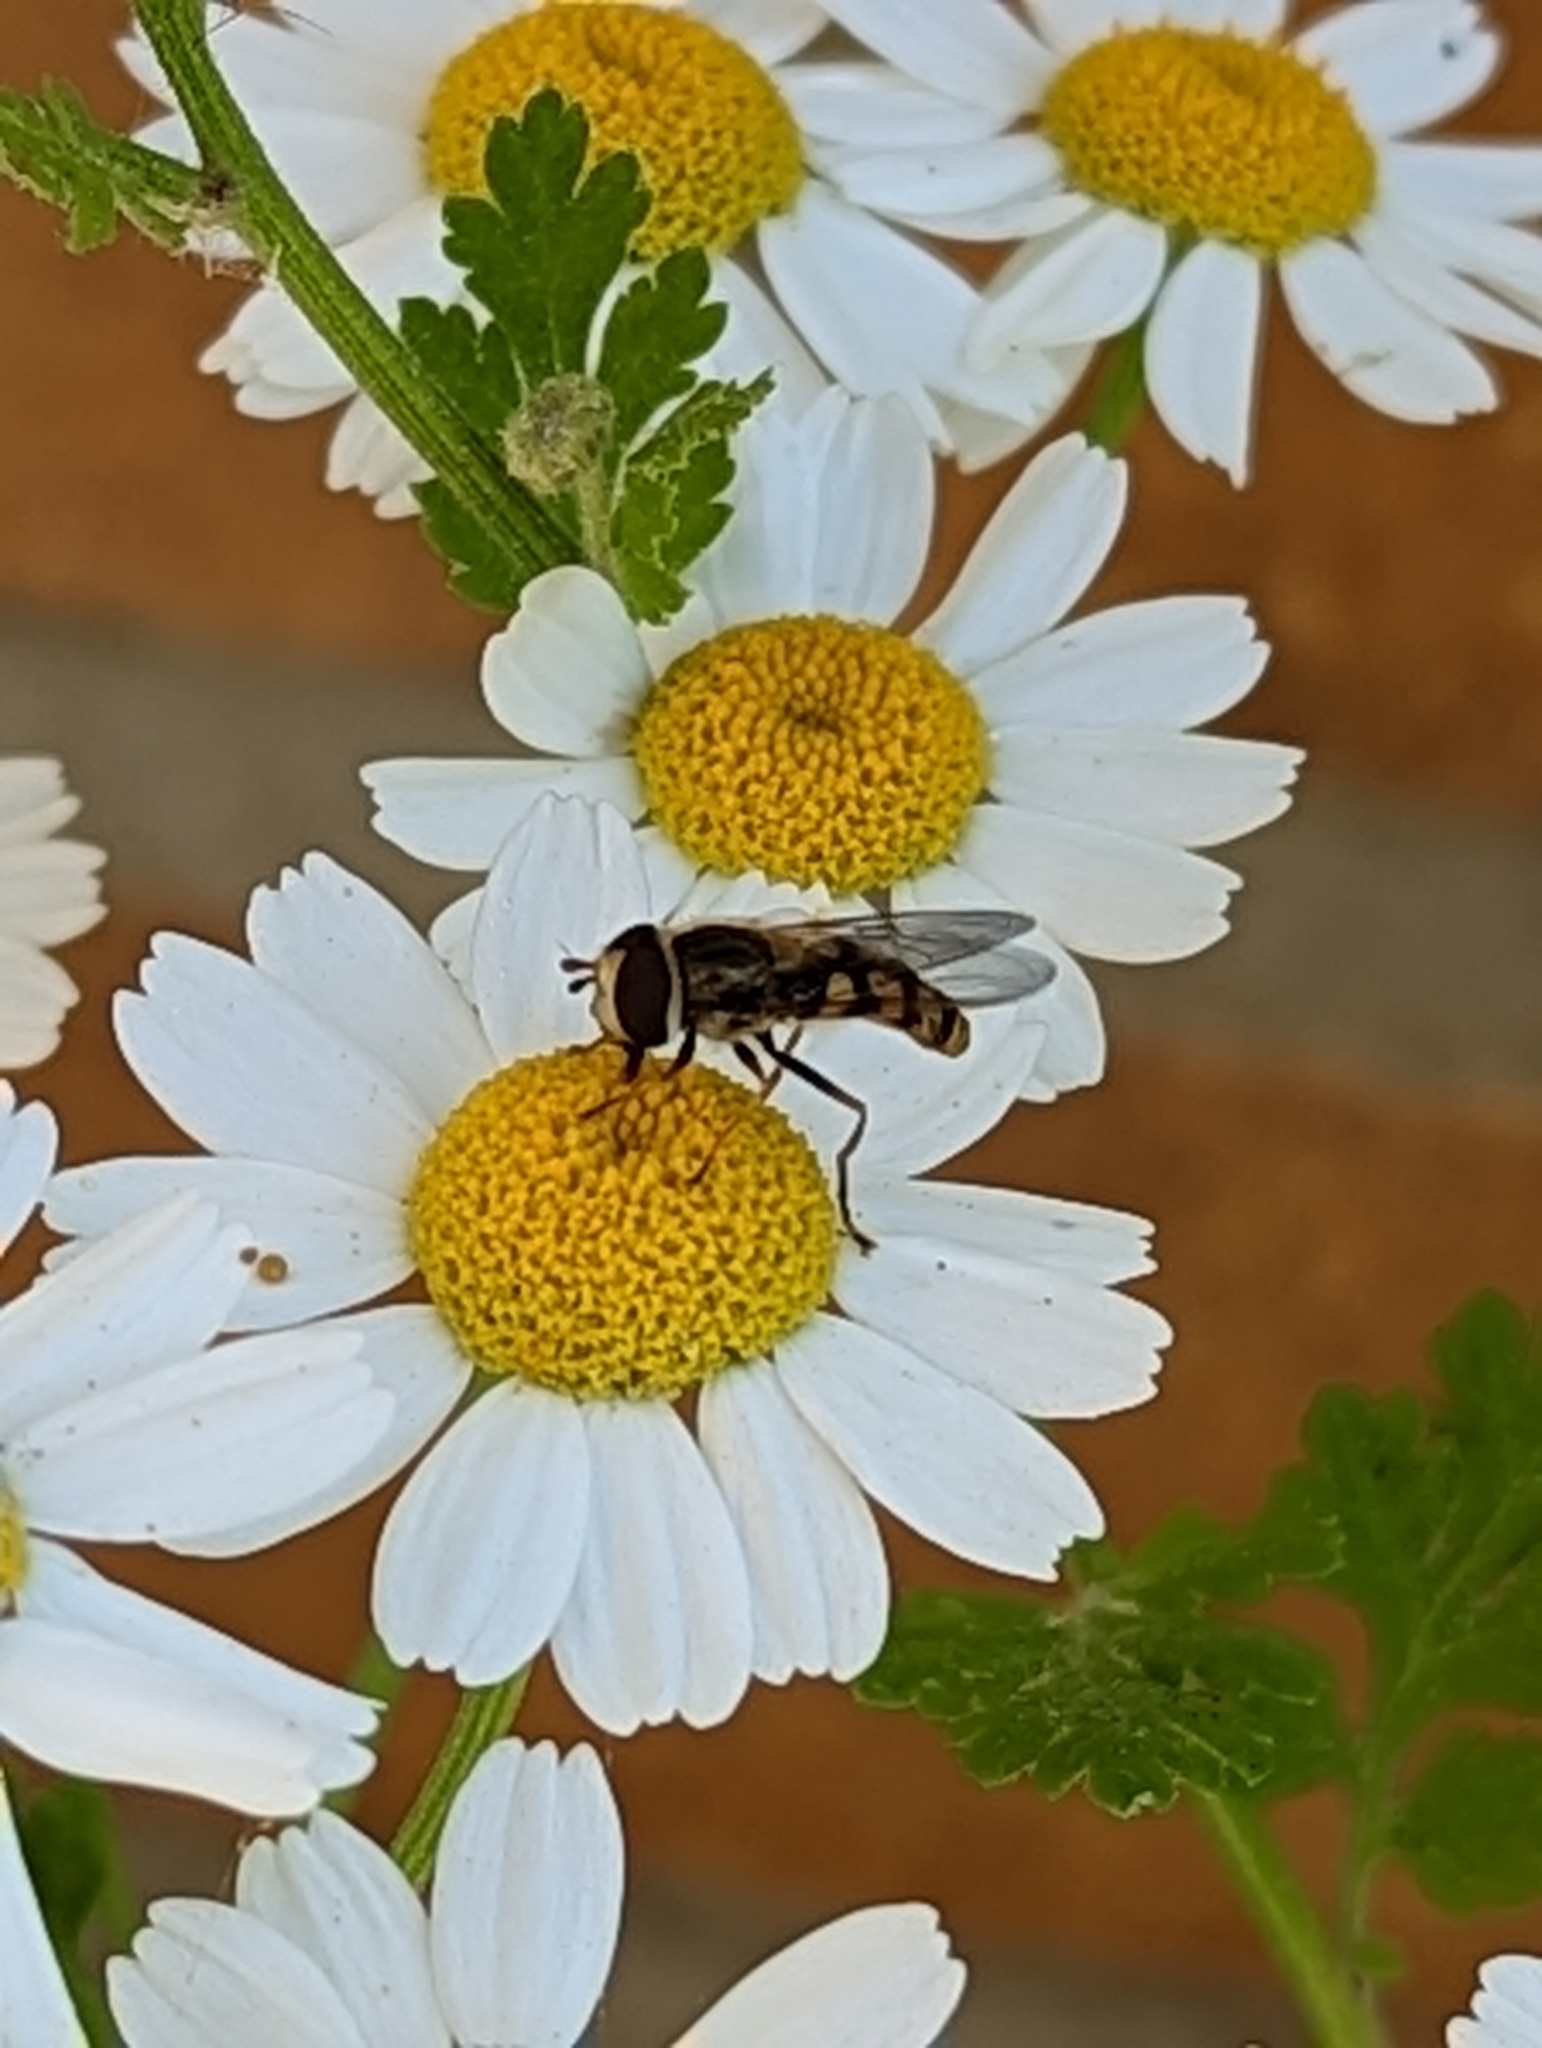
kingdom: Animalia
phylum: Arthropoda
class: Insecta
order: Diptera
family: Syrphidae
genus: Eupeodes
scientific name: Eupeodes
